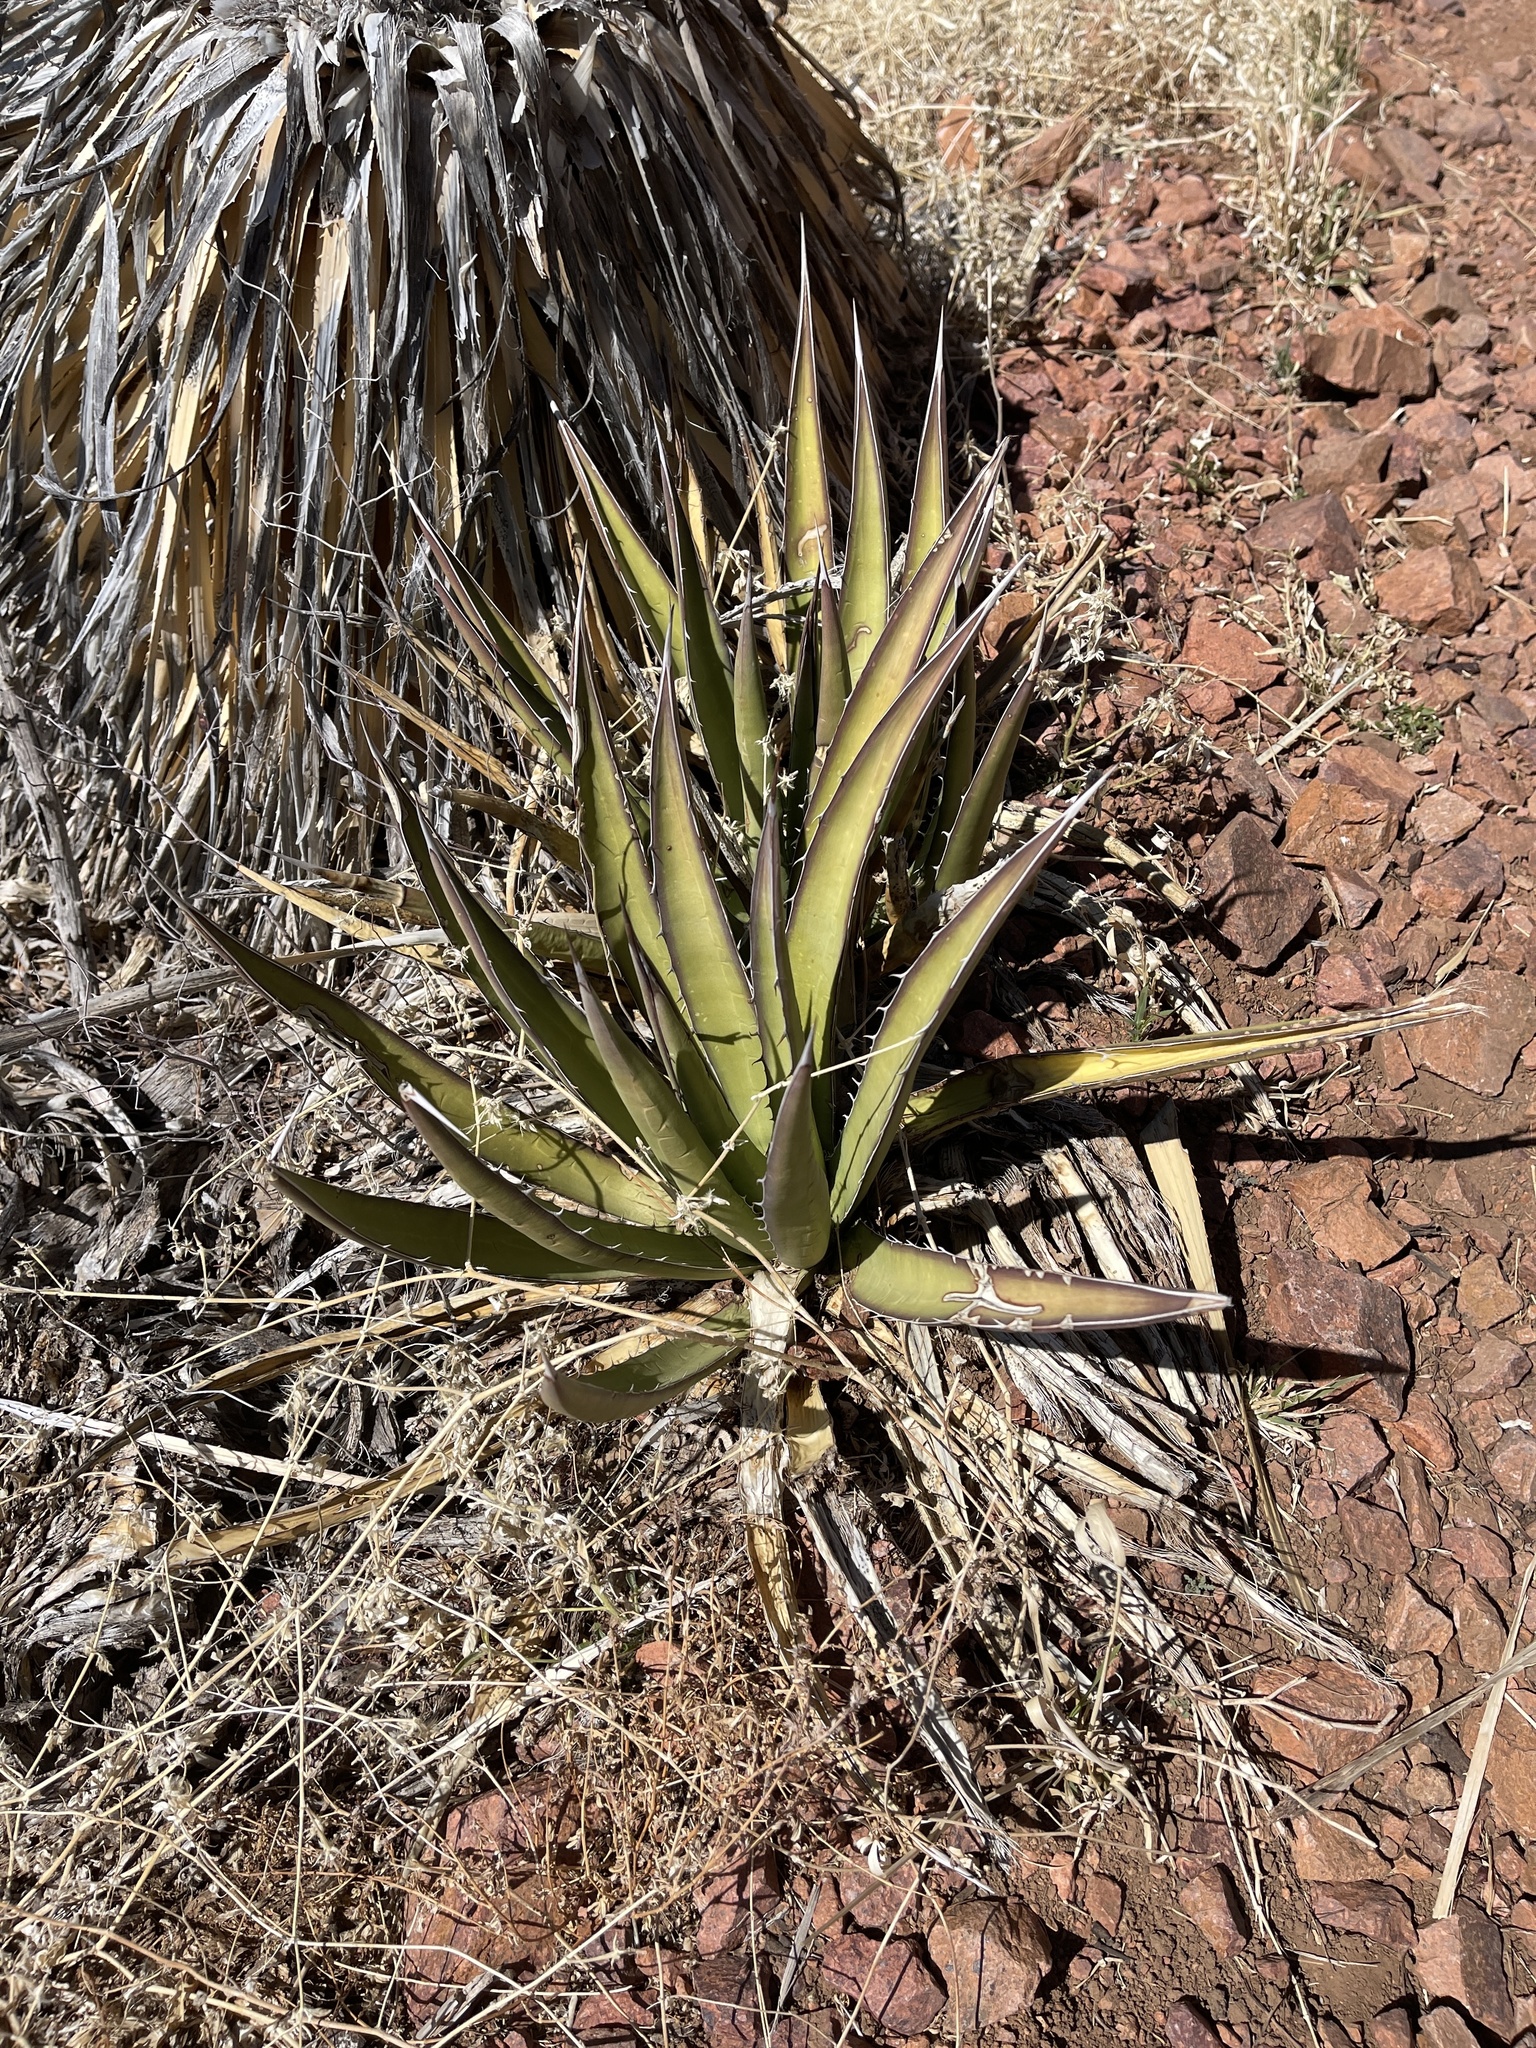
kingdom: Plantae
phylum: Tracheophyta
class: Liliopsida
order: Asparagales
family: Asparagaceae
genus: Agave
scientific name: Agave lechuguilla
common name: Lecheguilla agave
